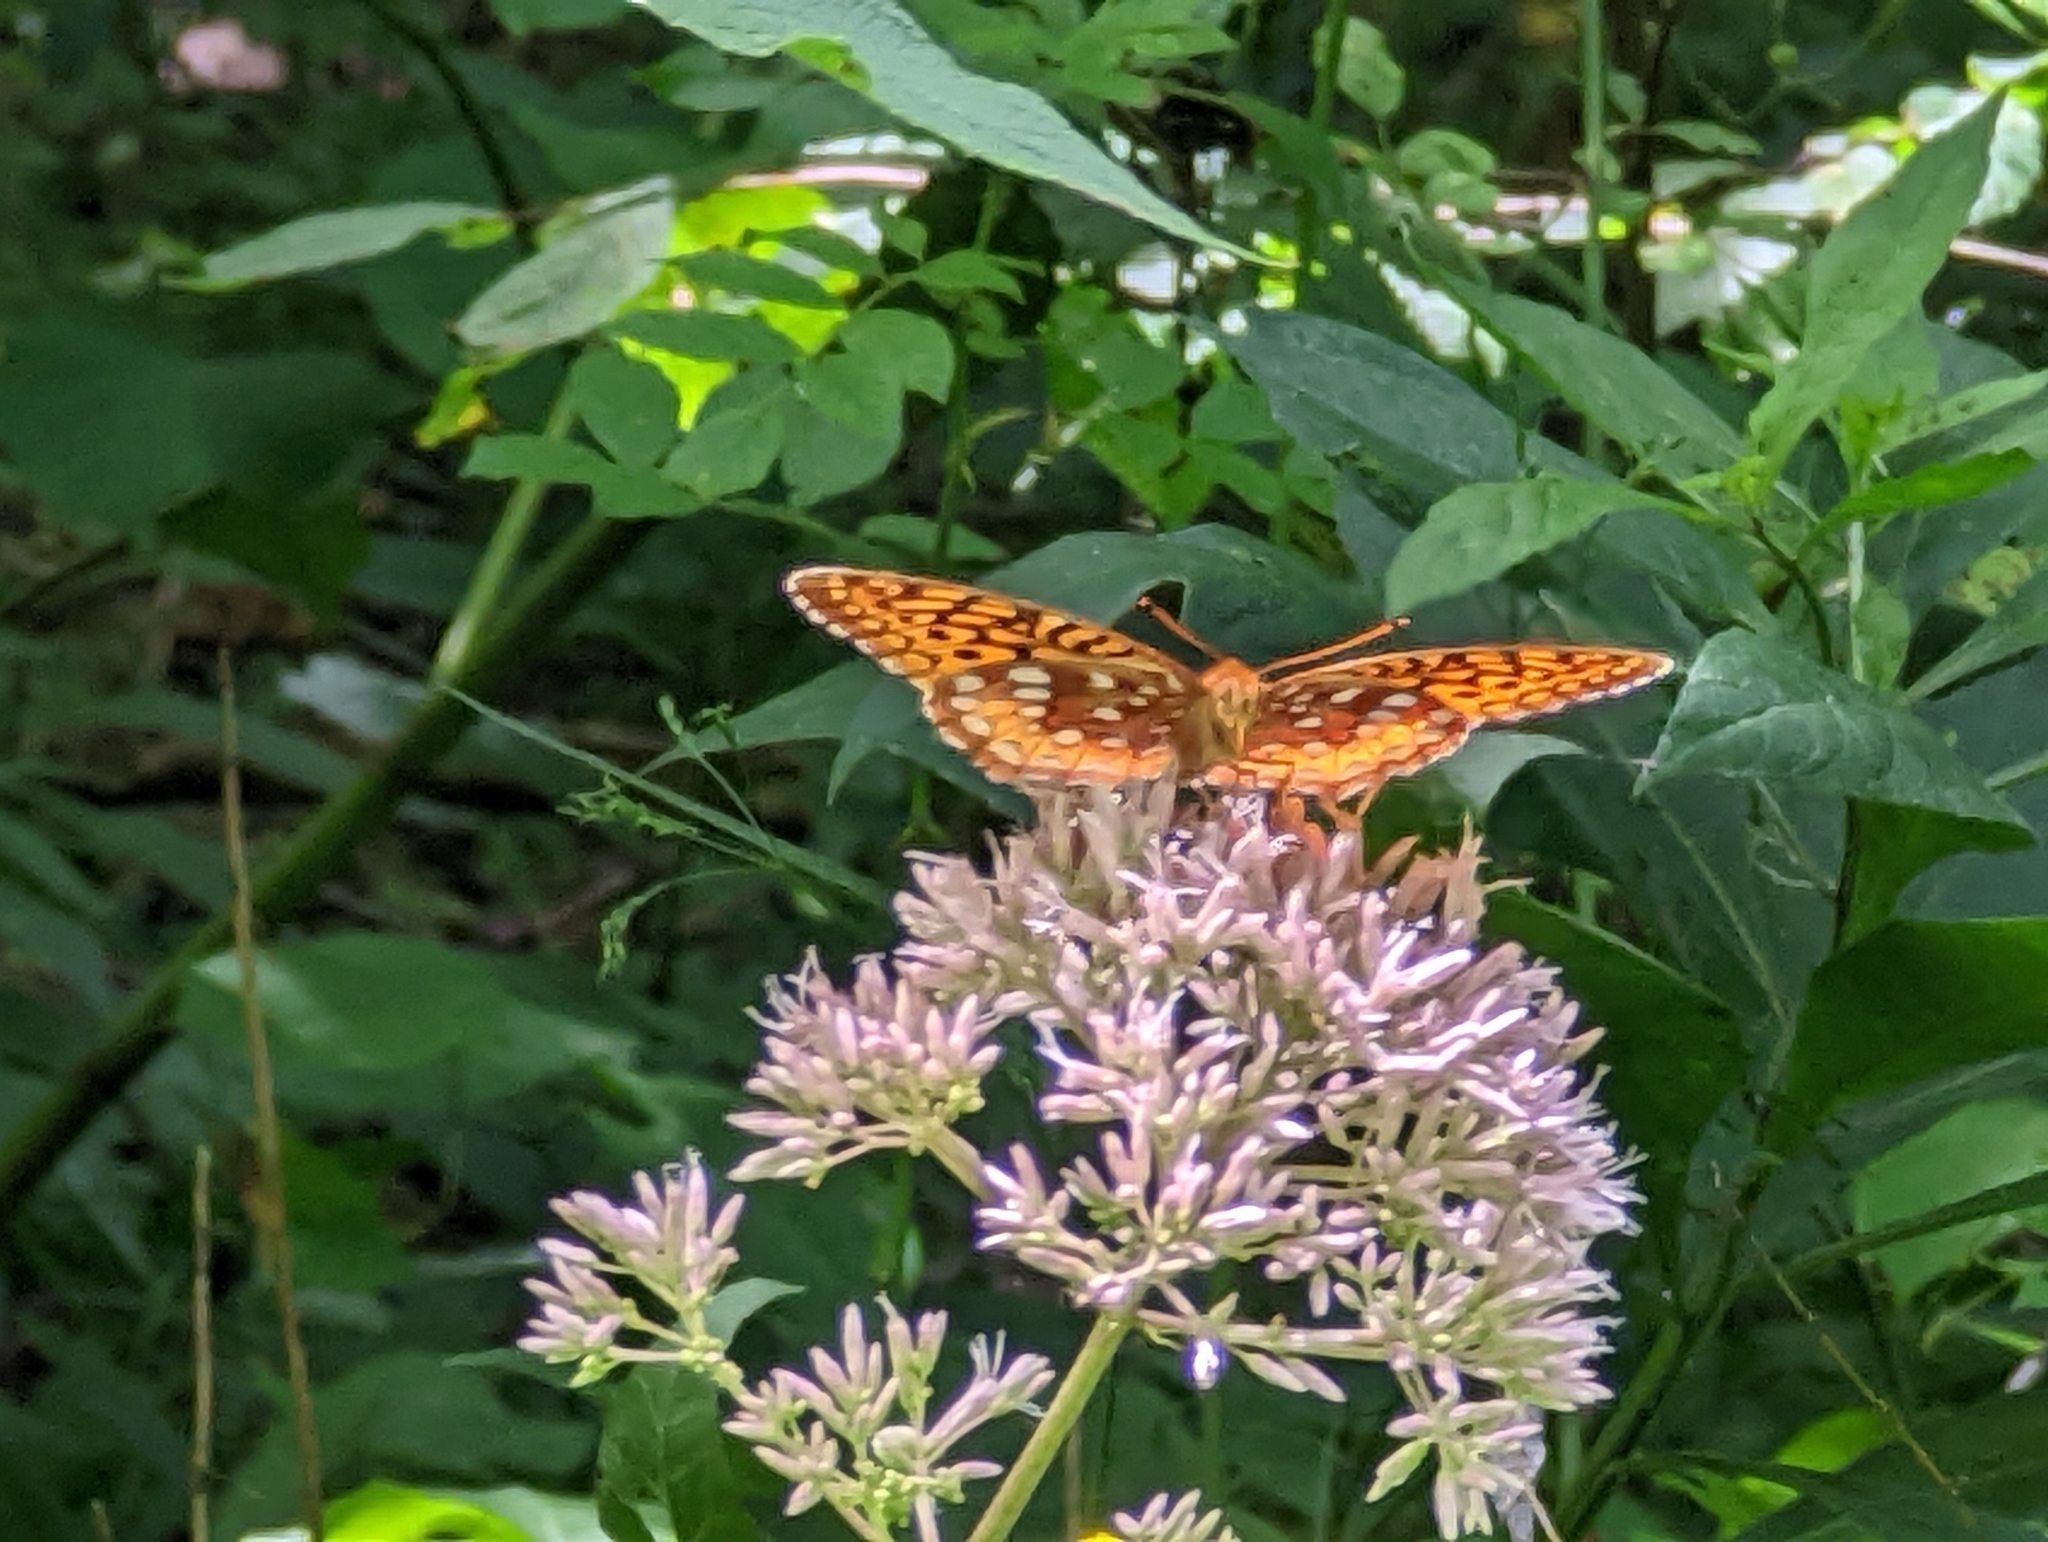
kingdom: Animalia
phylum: Arthropoda
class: Insecta
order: Lepidoptera
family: Nymphalidae
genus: Speyeria
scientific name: Speyeria cybele
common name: Great spangled fritillary
